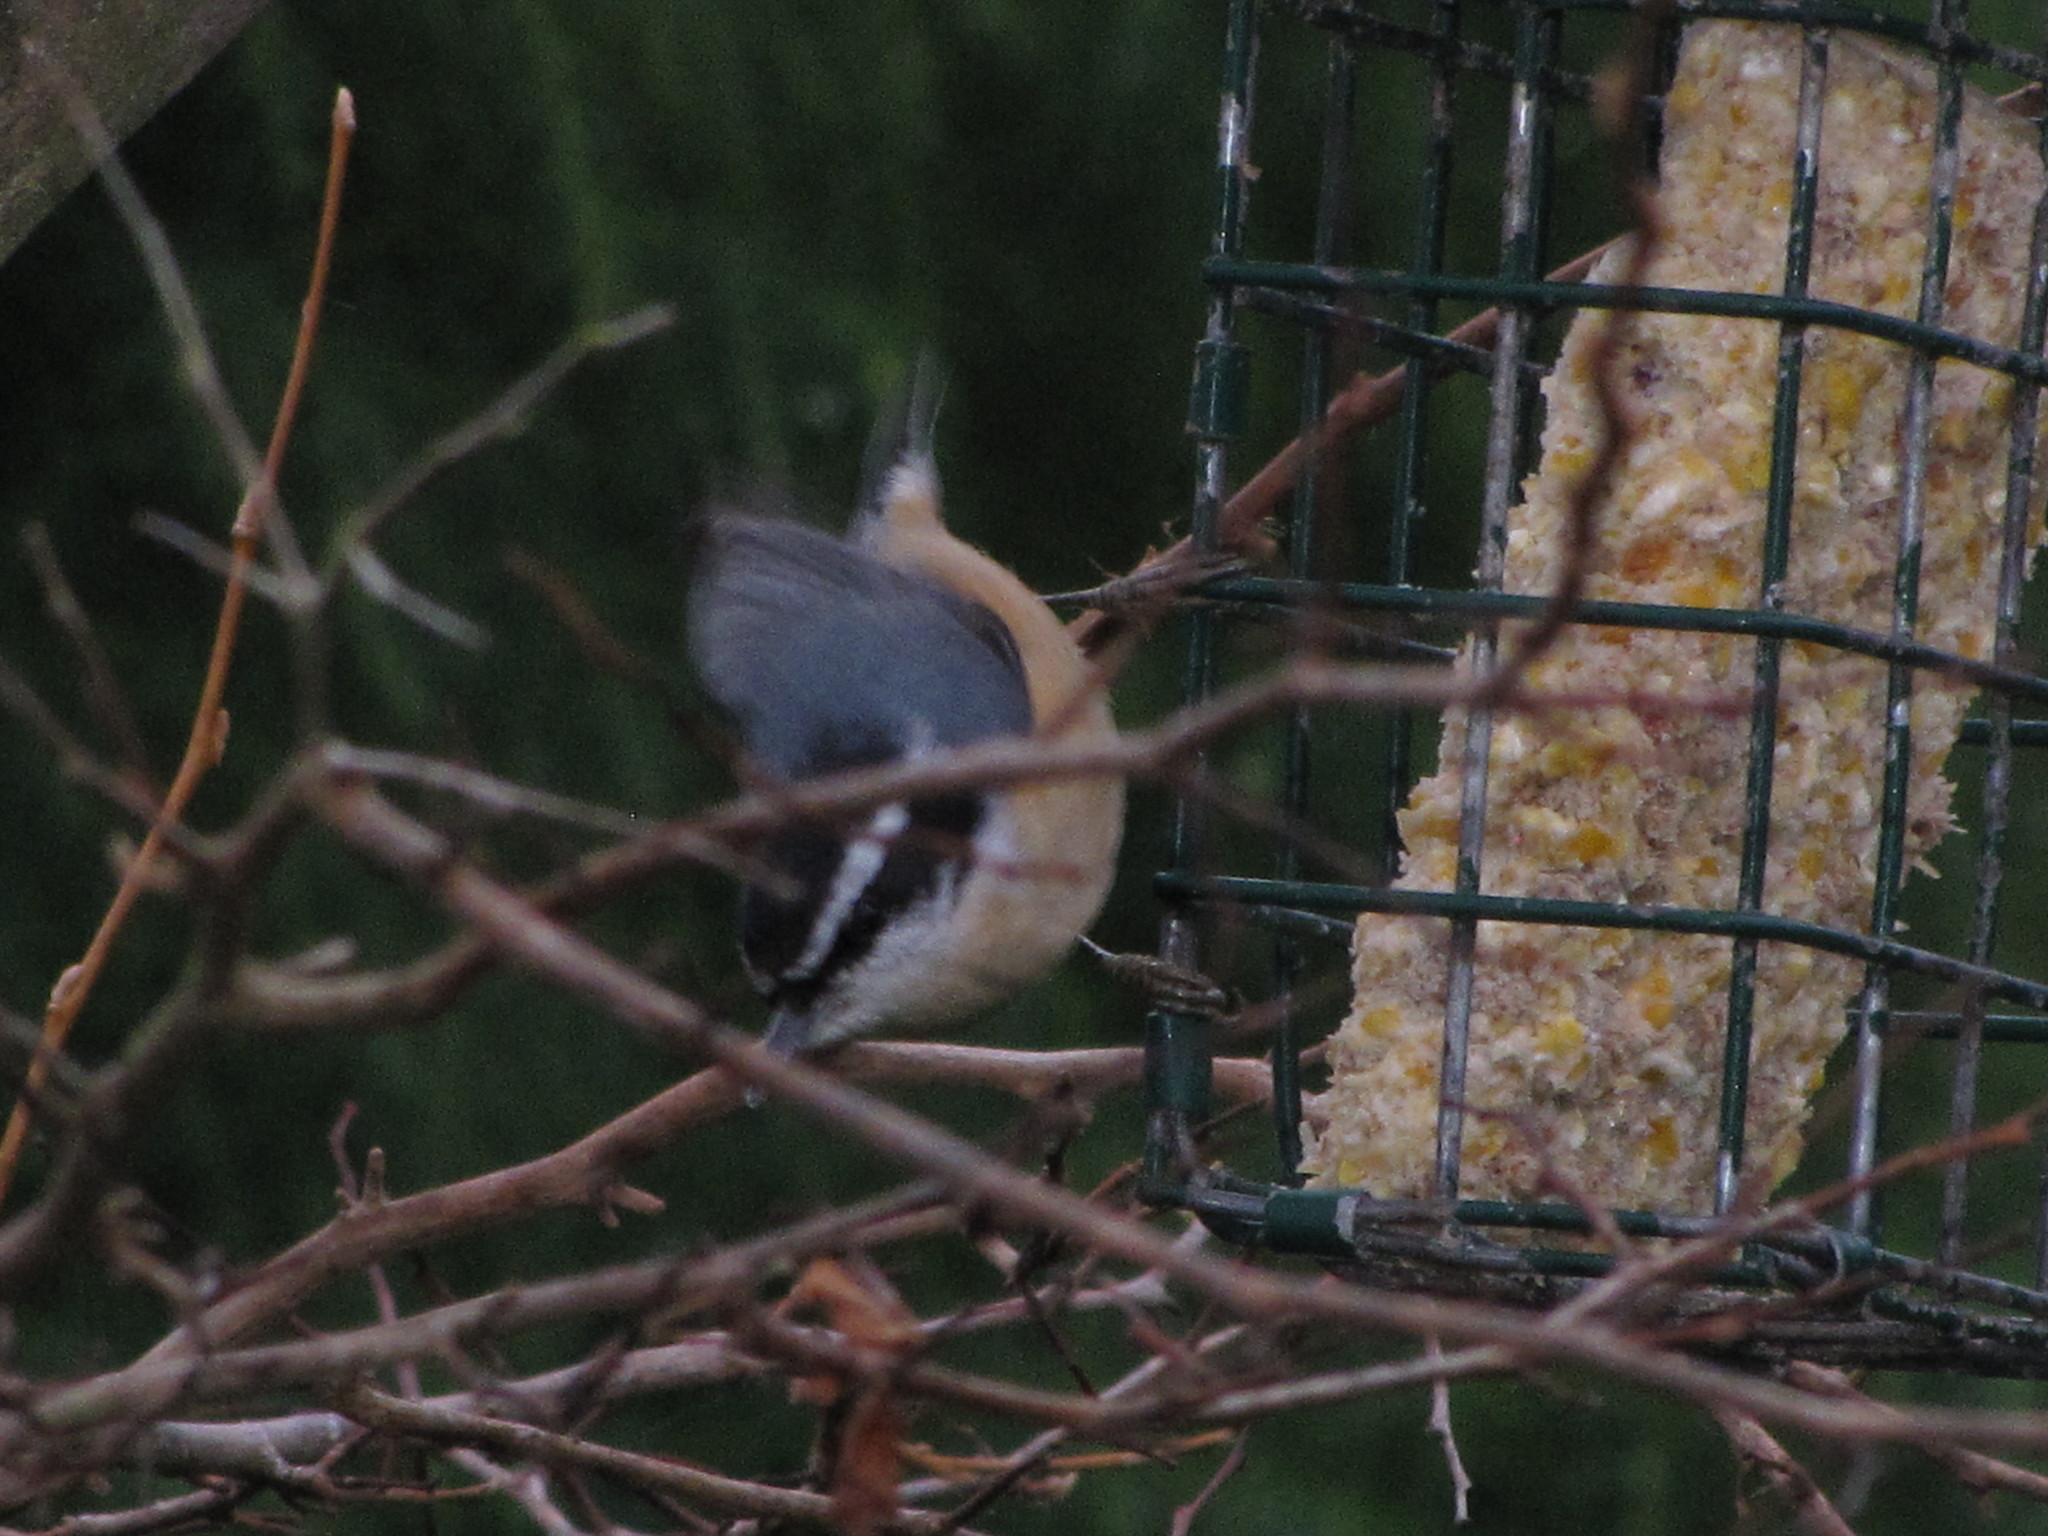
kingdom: Animalia
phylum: Chordata
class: Aves
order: Passeriformes
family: Sittidae
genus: Sitta
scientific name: Sitta canadensis
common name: Red-breasted nuthatch
